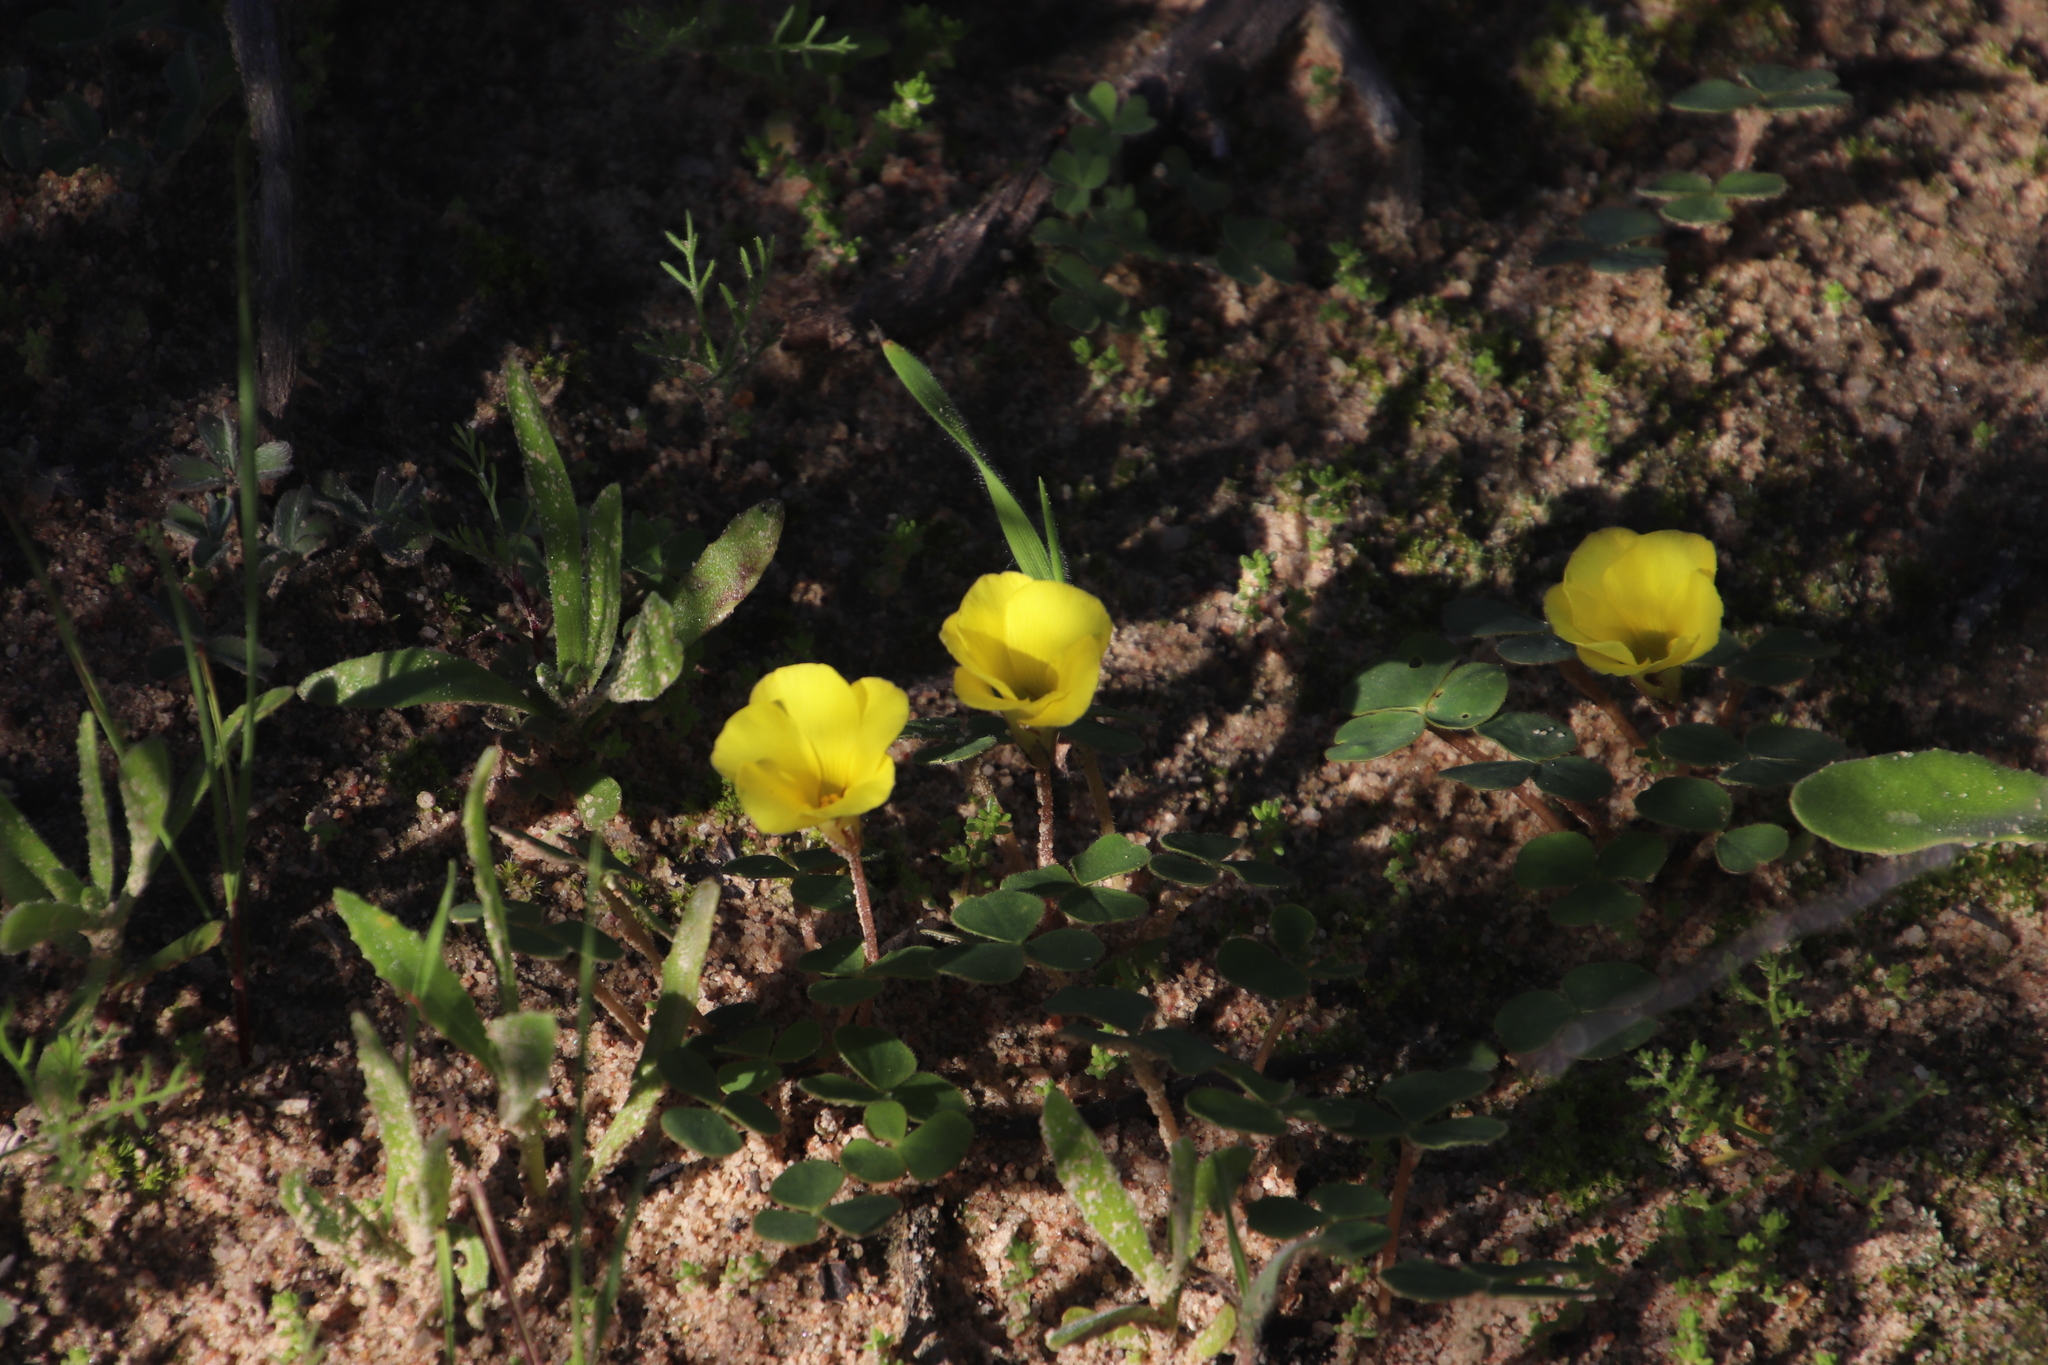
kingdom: Plantae
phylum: Tracheophyta
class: Magnoliopsida
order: Oxalidales
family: Oxalidaceae
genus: Oxalis
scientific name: Oxalis luteola
